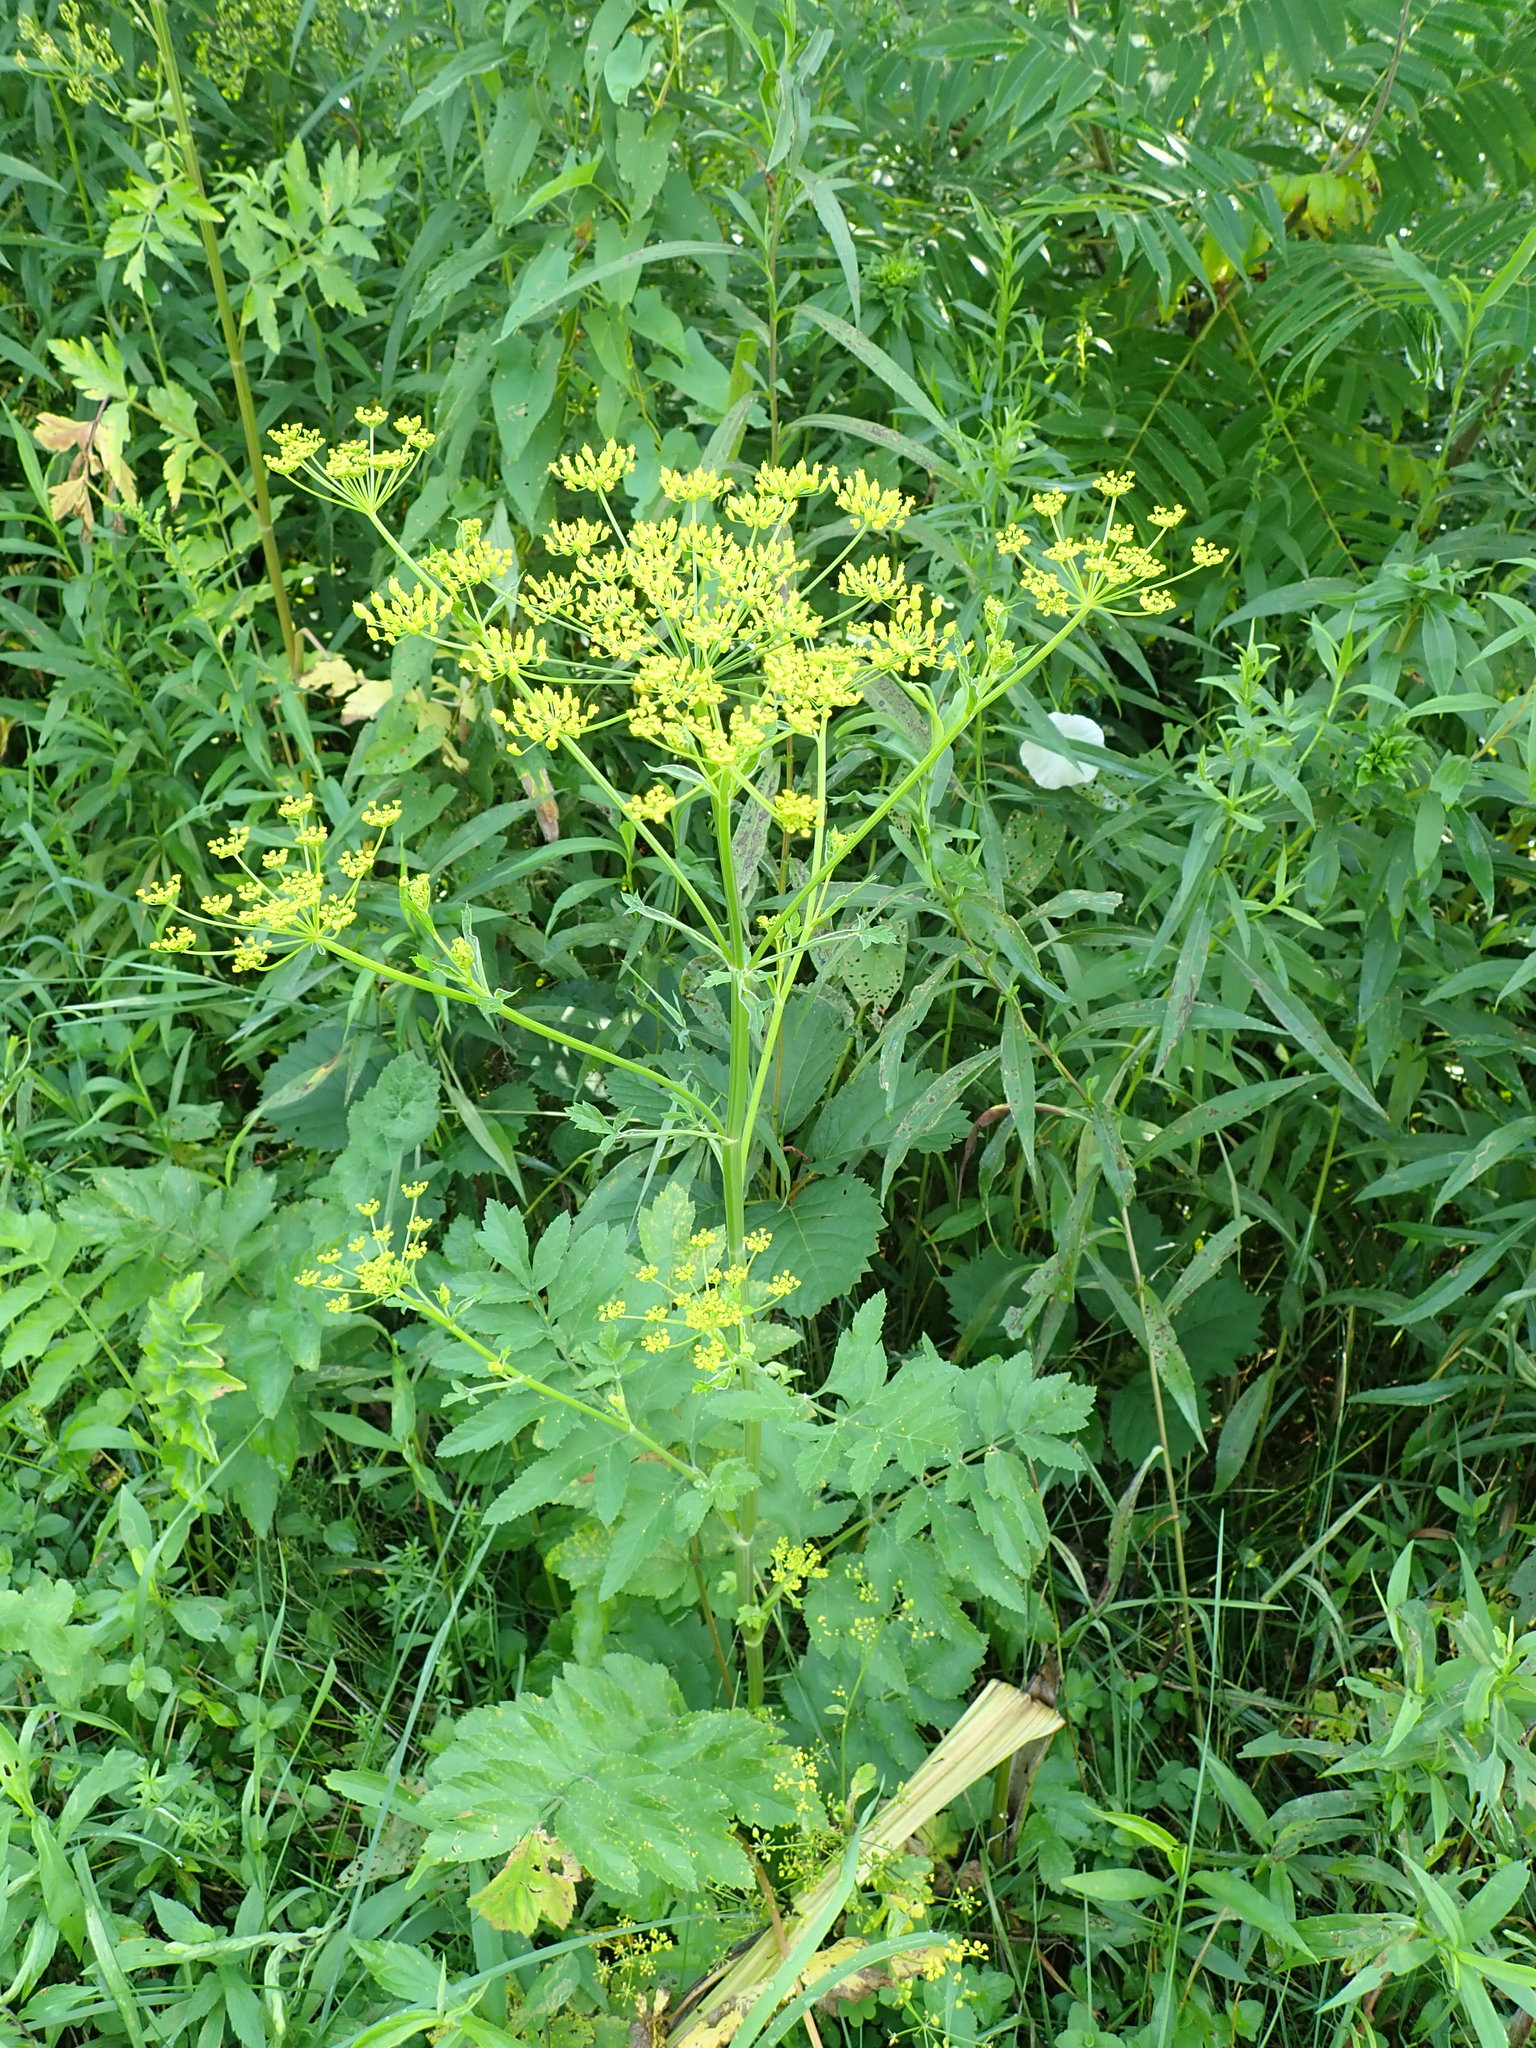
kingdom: Plantae
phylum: Tracheophyta
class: Magnoliopsida
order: Apiales
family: Apiaceae
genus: Pastinaca
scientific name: Pastinaca sativa
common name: Wild parsnip
